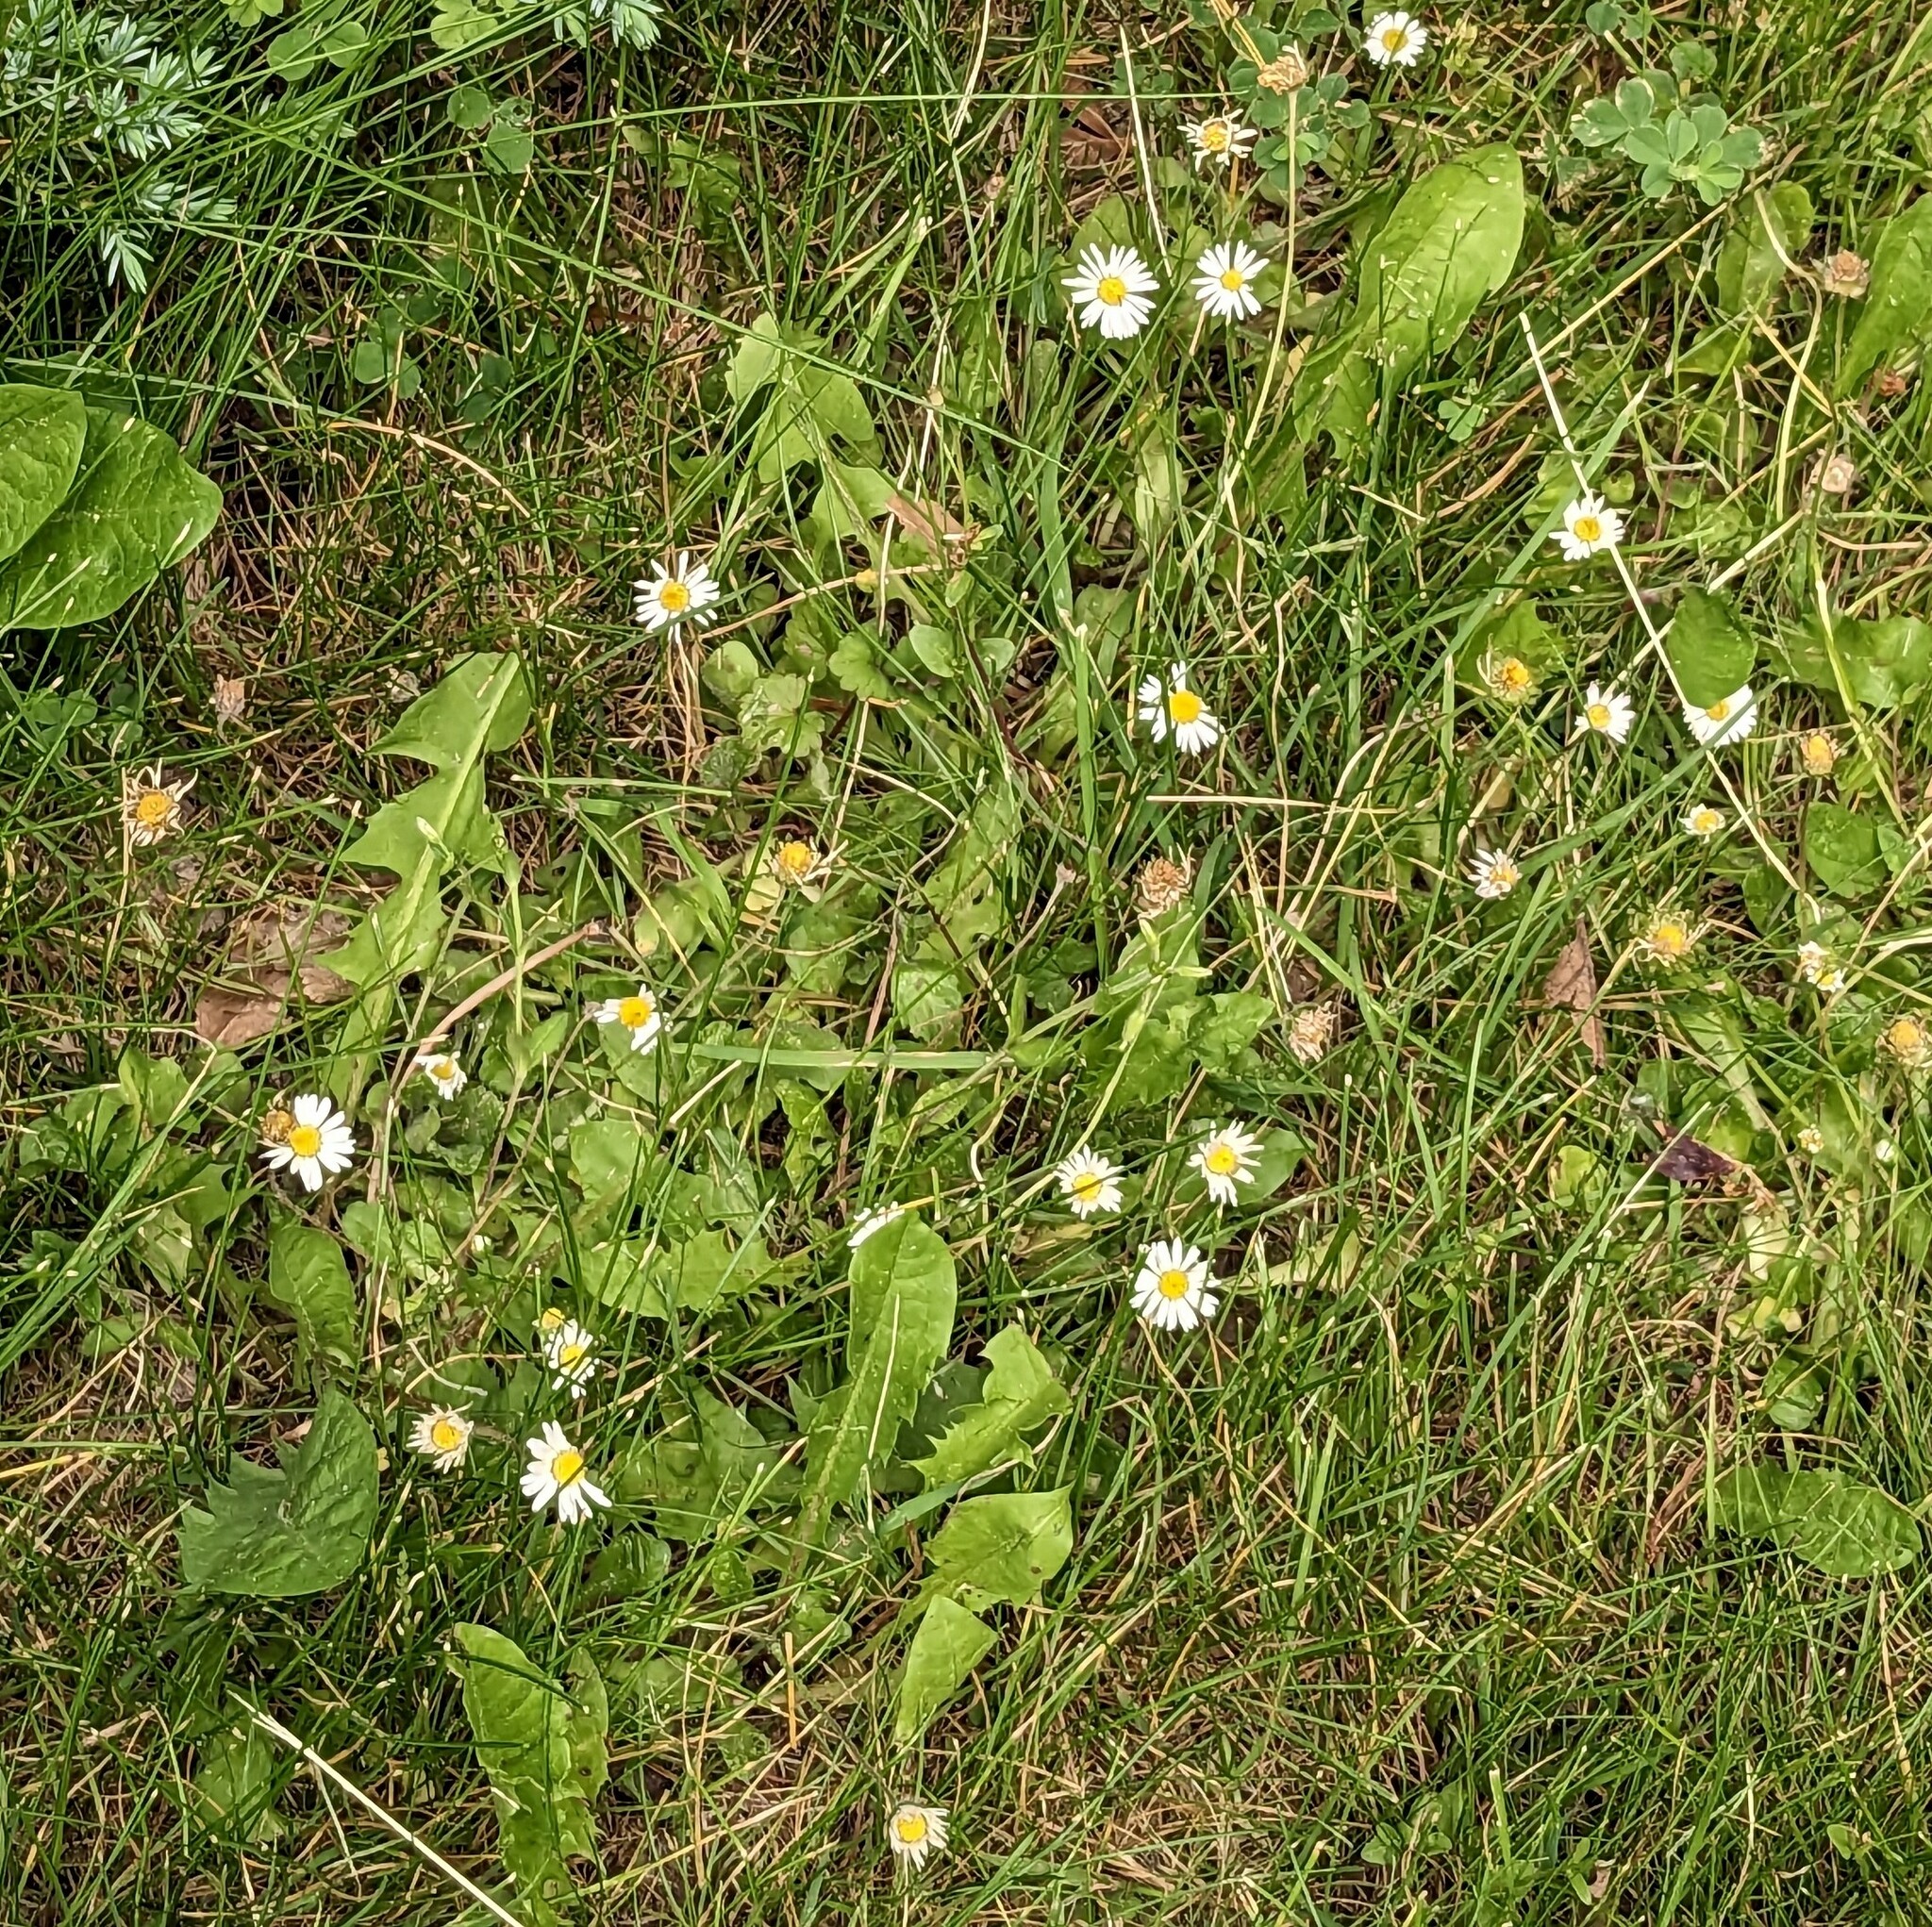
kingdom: Plantae
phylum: Tracheophyta
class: Magnoliopsida
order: Asterales
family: Asteraceae
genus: Bellis
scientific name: Bellis perennis
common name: Lawndaisy
